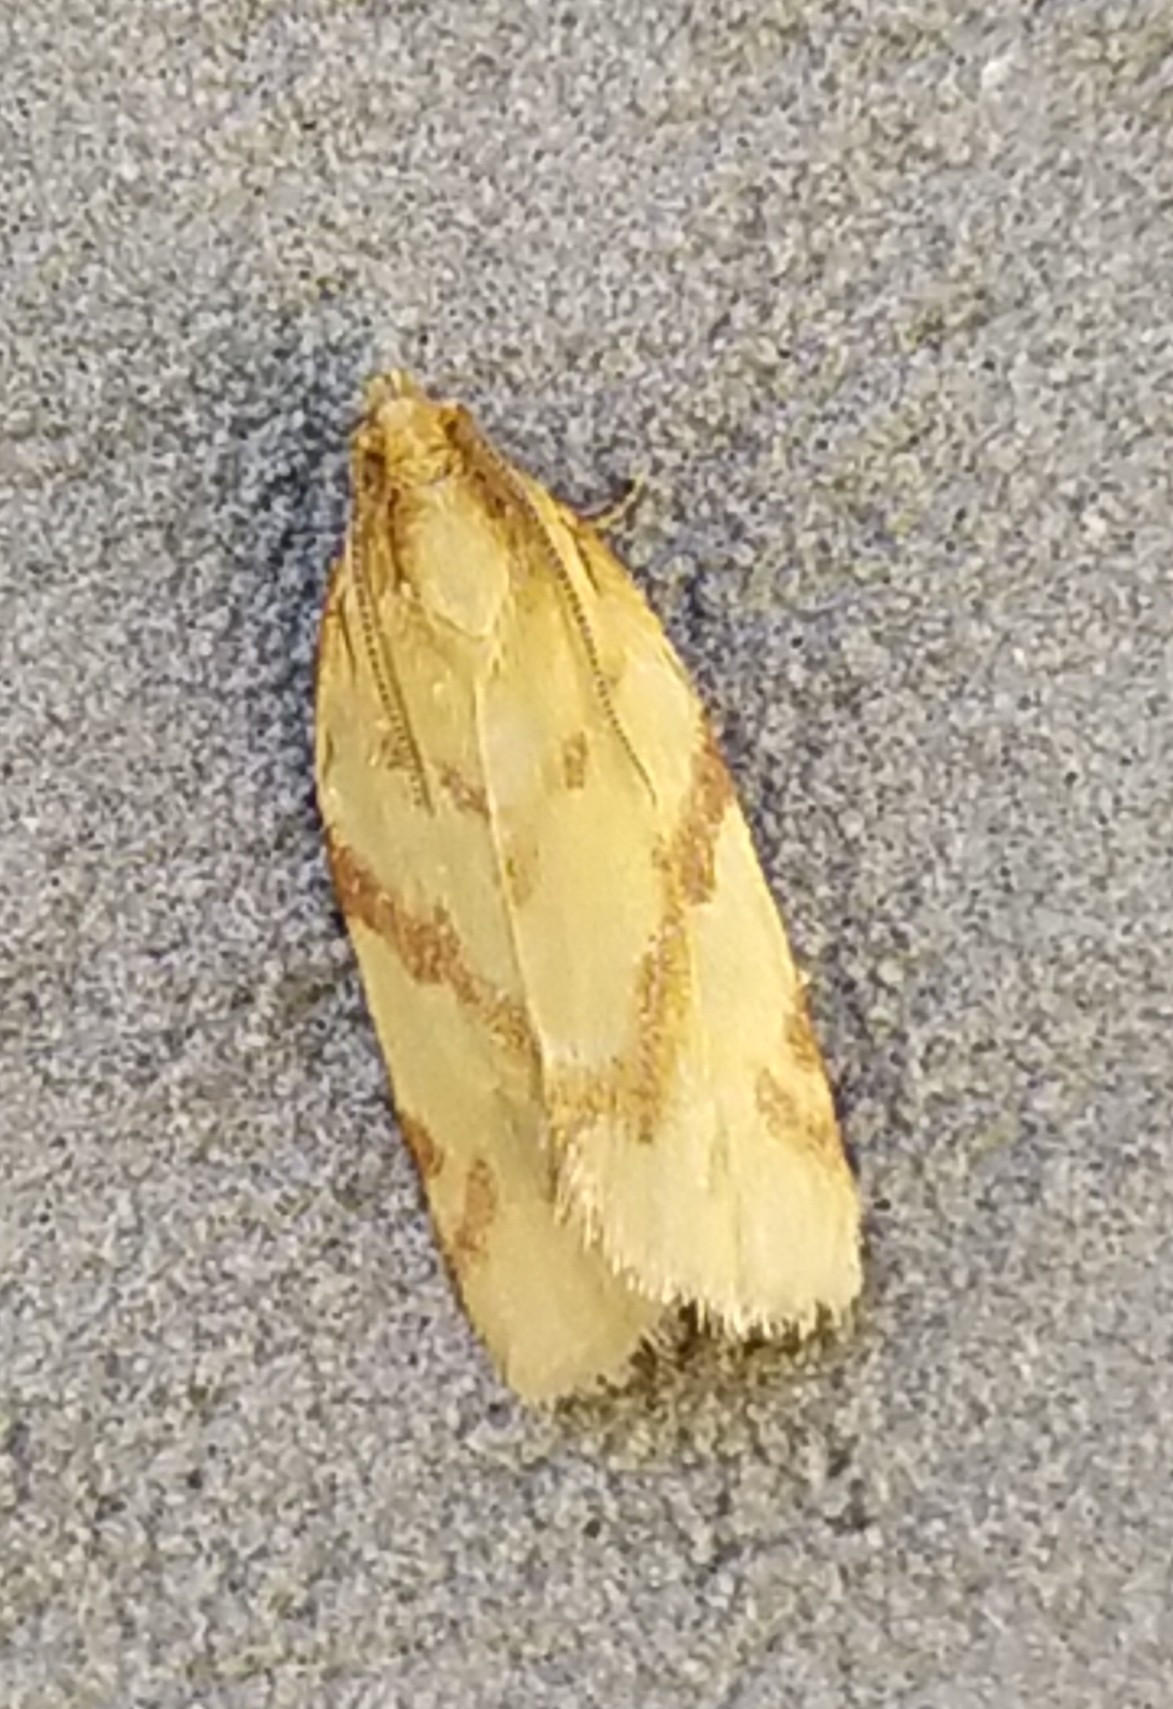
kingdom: Animalia
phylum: Arthropoda
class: Insecta
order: Lepidoptera
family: Tortricidae
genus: Clepsis
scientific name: Clepsis pallidana
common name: Sheep's-bit conch
